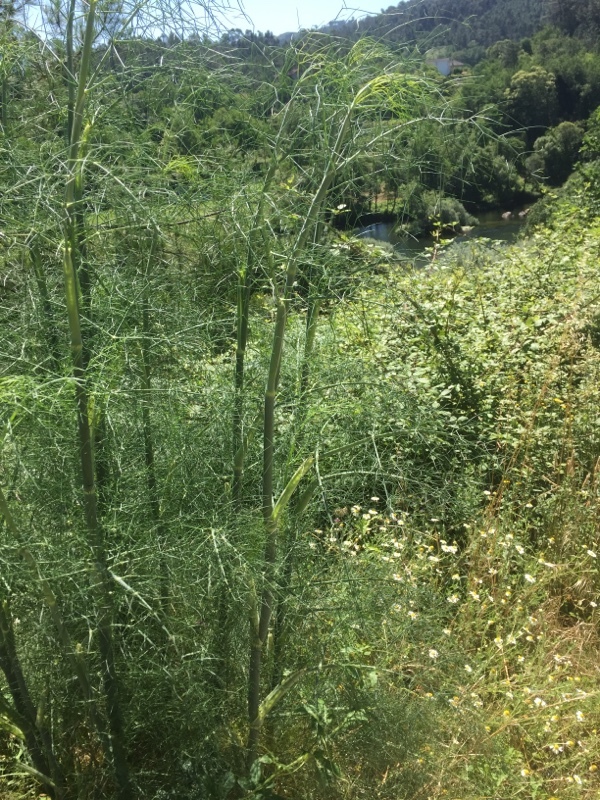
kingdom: Plantae
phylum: Tracheophyta
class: Magnoliopsida
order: Apiales
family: Apiaceae
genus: Foeniculum
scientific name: Foeniculum vulgare
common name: Fennel
